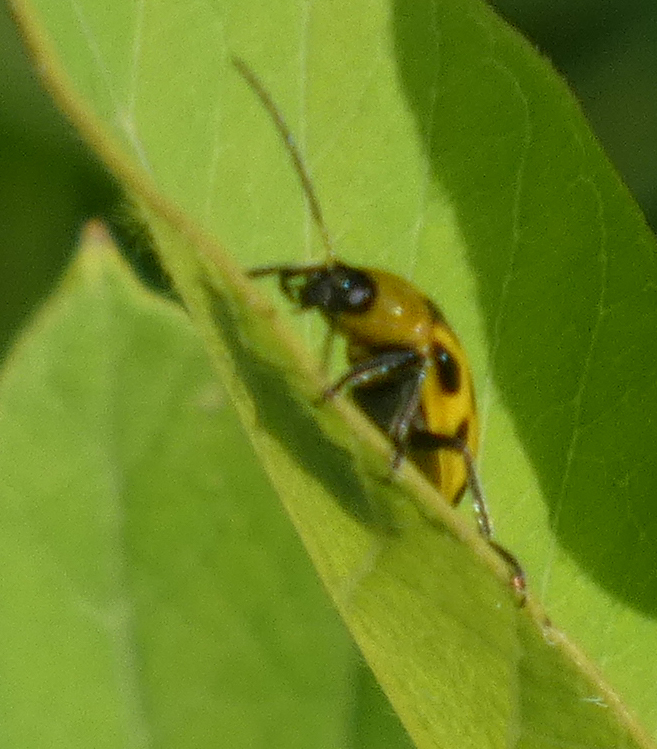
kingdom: Animalia
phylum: Arthropoda
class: Insecta
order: Coleoptera
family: Chrysomelidae
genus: Diabrotica
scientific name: Diabrotica undecimpunctata
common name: Spotted cucumber beetle
